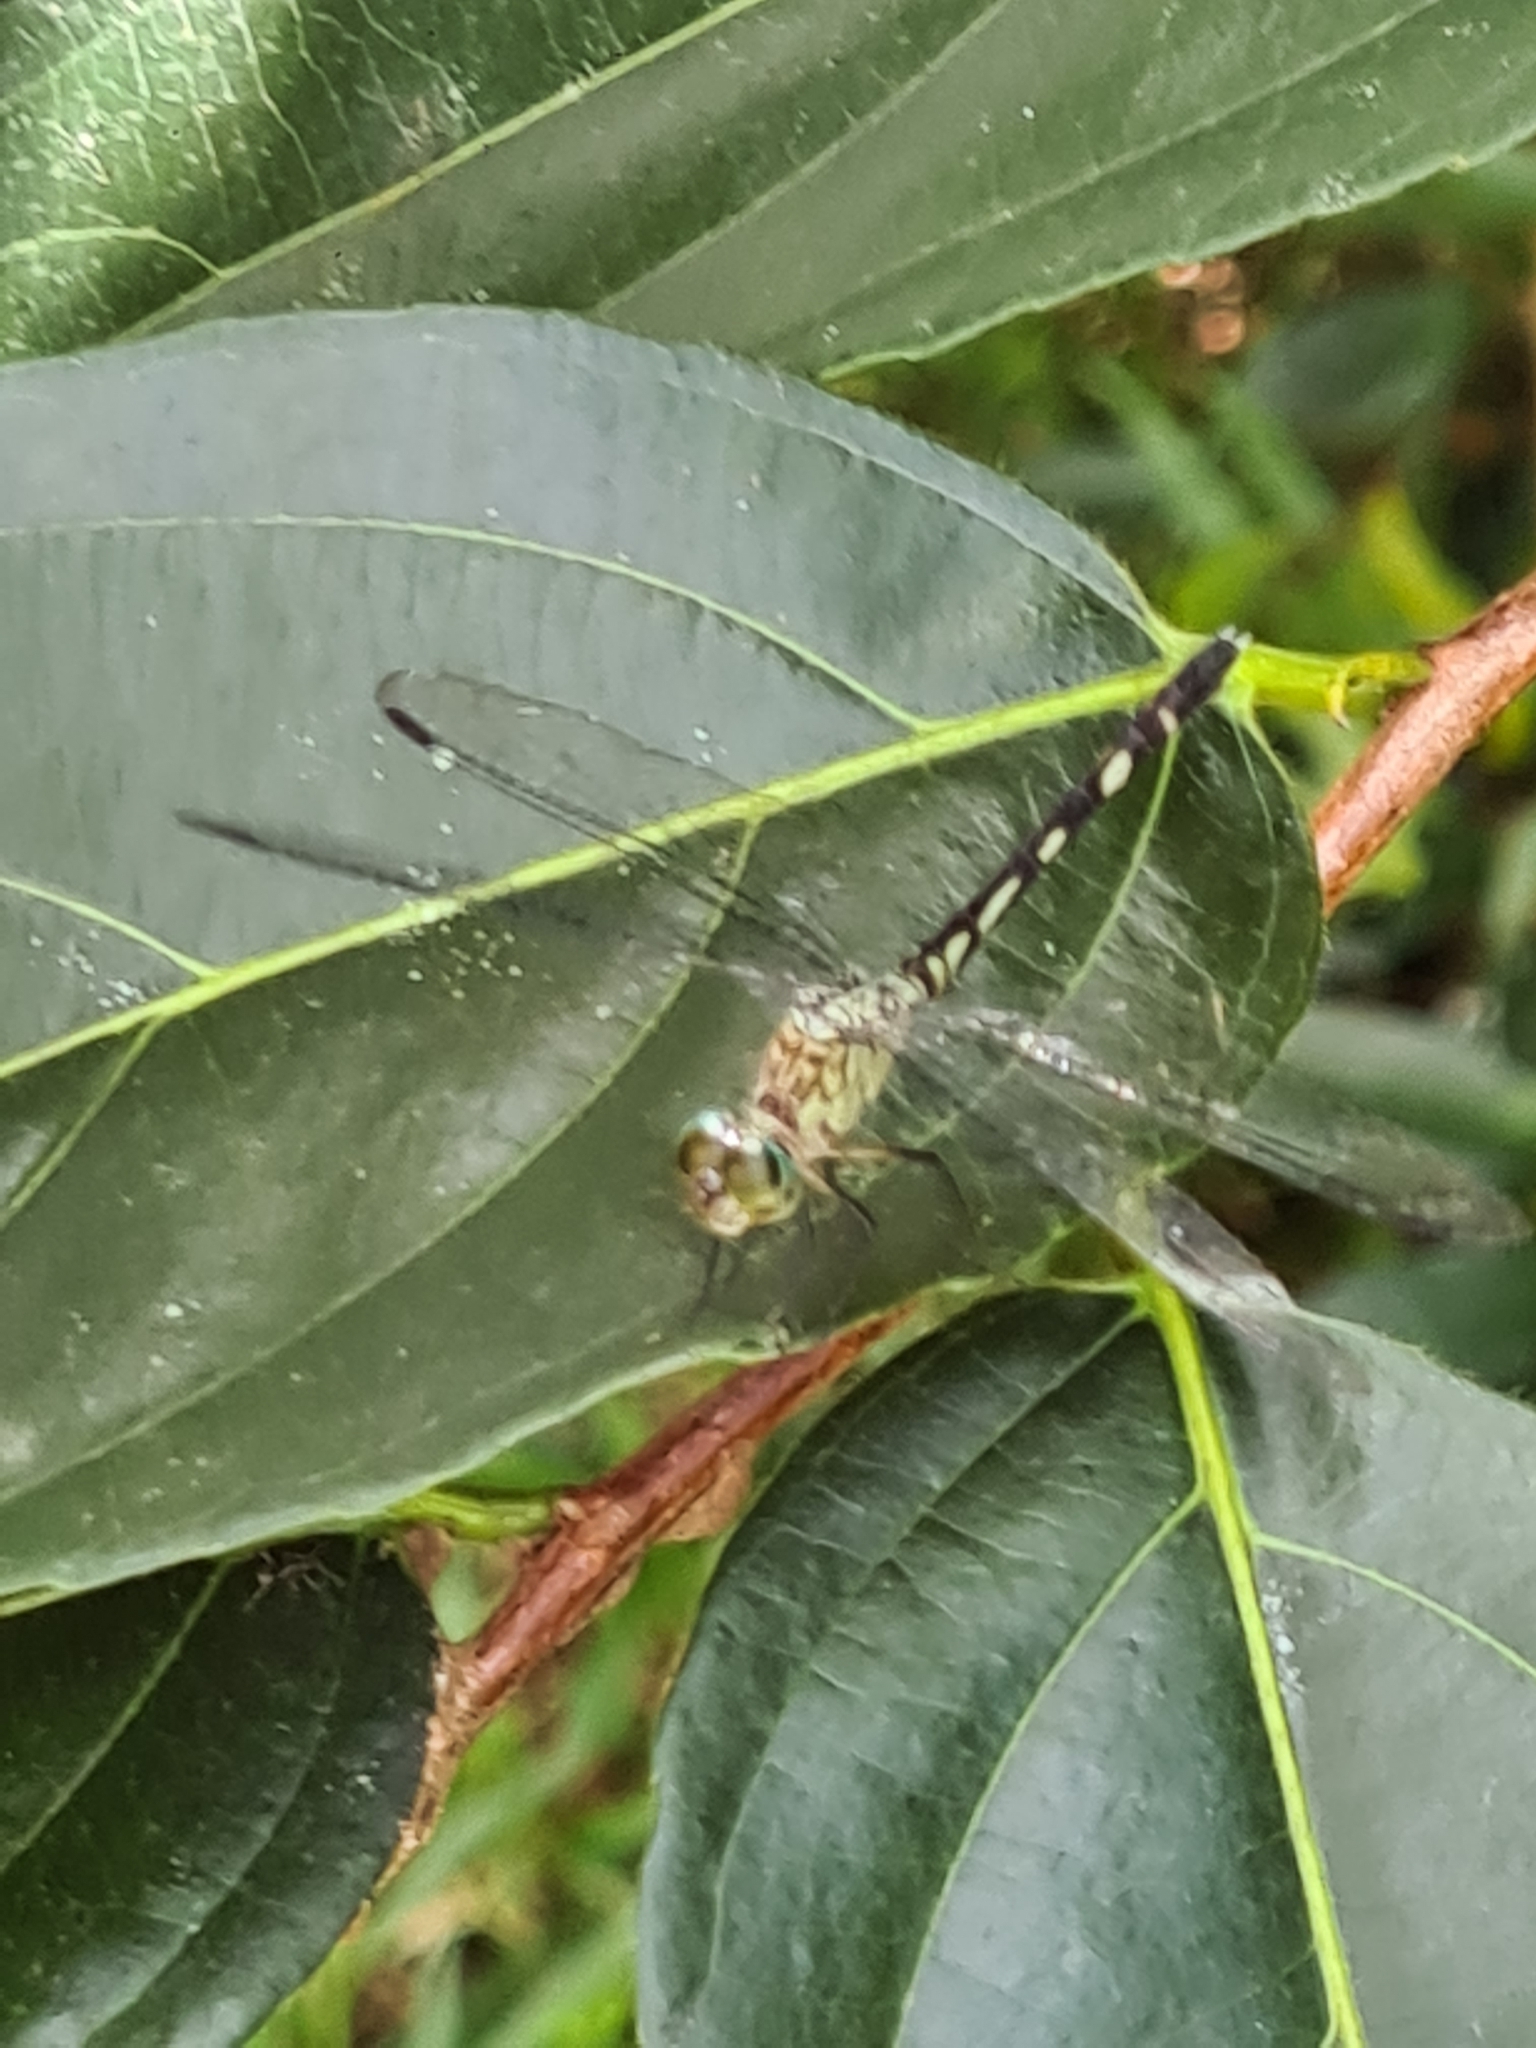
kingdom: Animalia
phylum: Arthropoda
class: Insecta
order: Odonata
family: Libellulidae
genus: Anatya
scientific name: Anatya guttata
